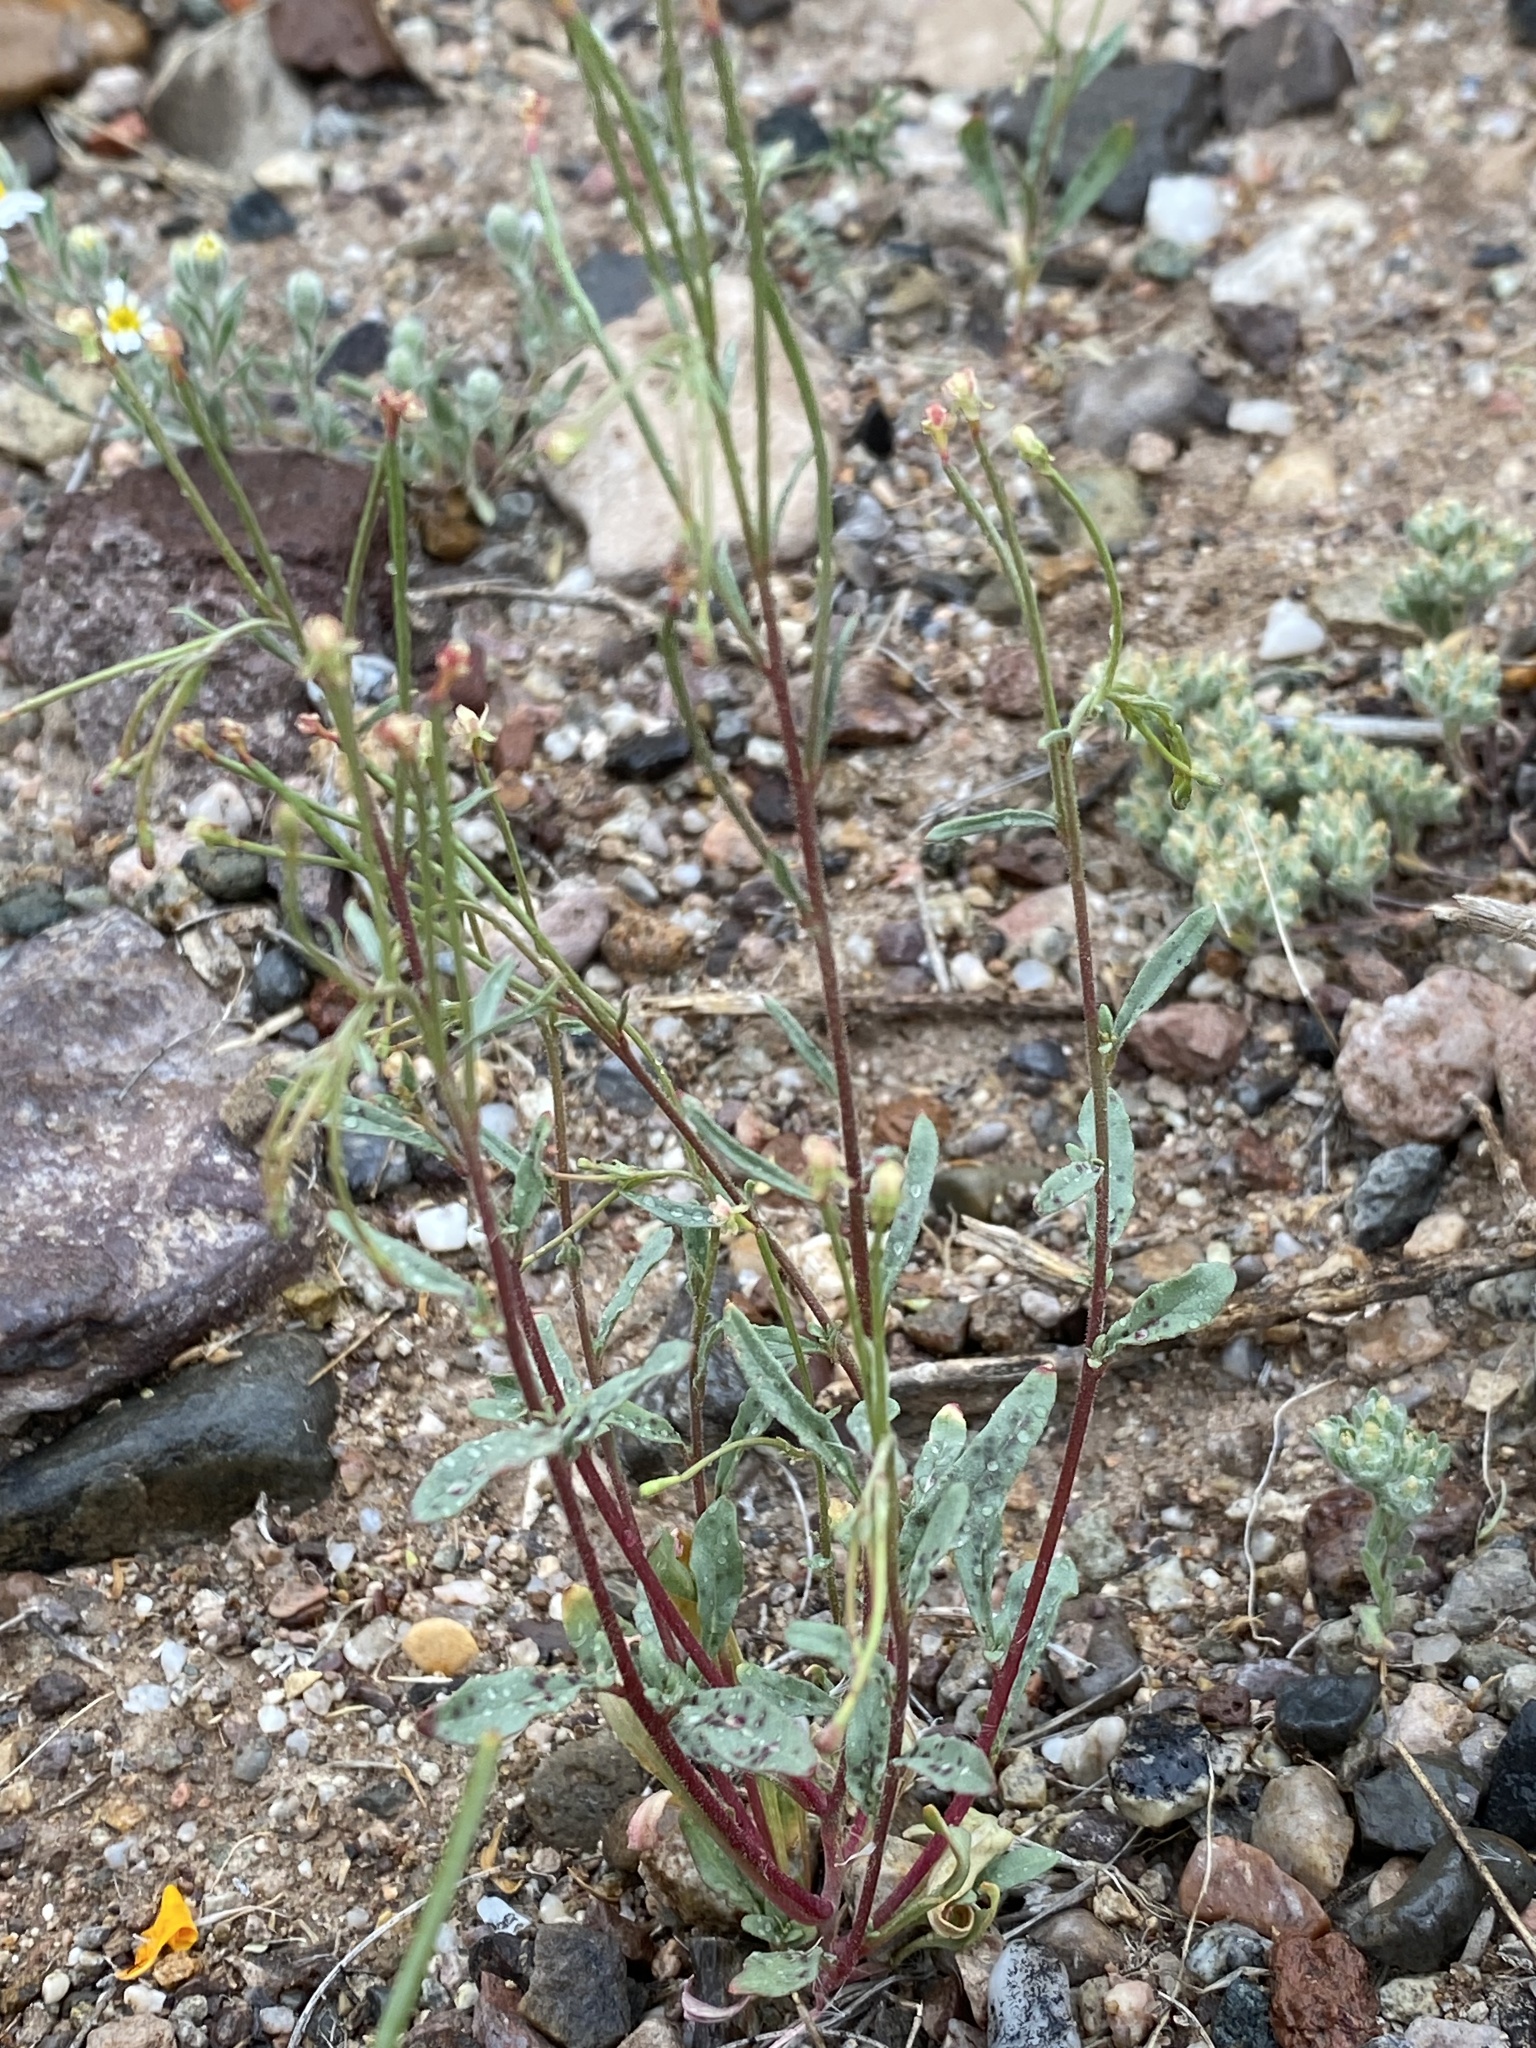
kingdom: Plantae
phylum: Tracheophyta
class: Magnoliopsida
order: Myrtales
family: Onagraceae
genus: Eremothera
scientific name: Eremothera chamaenerioides
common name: Longcapsule suncup
